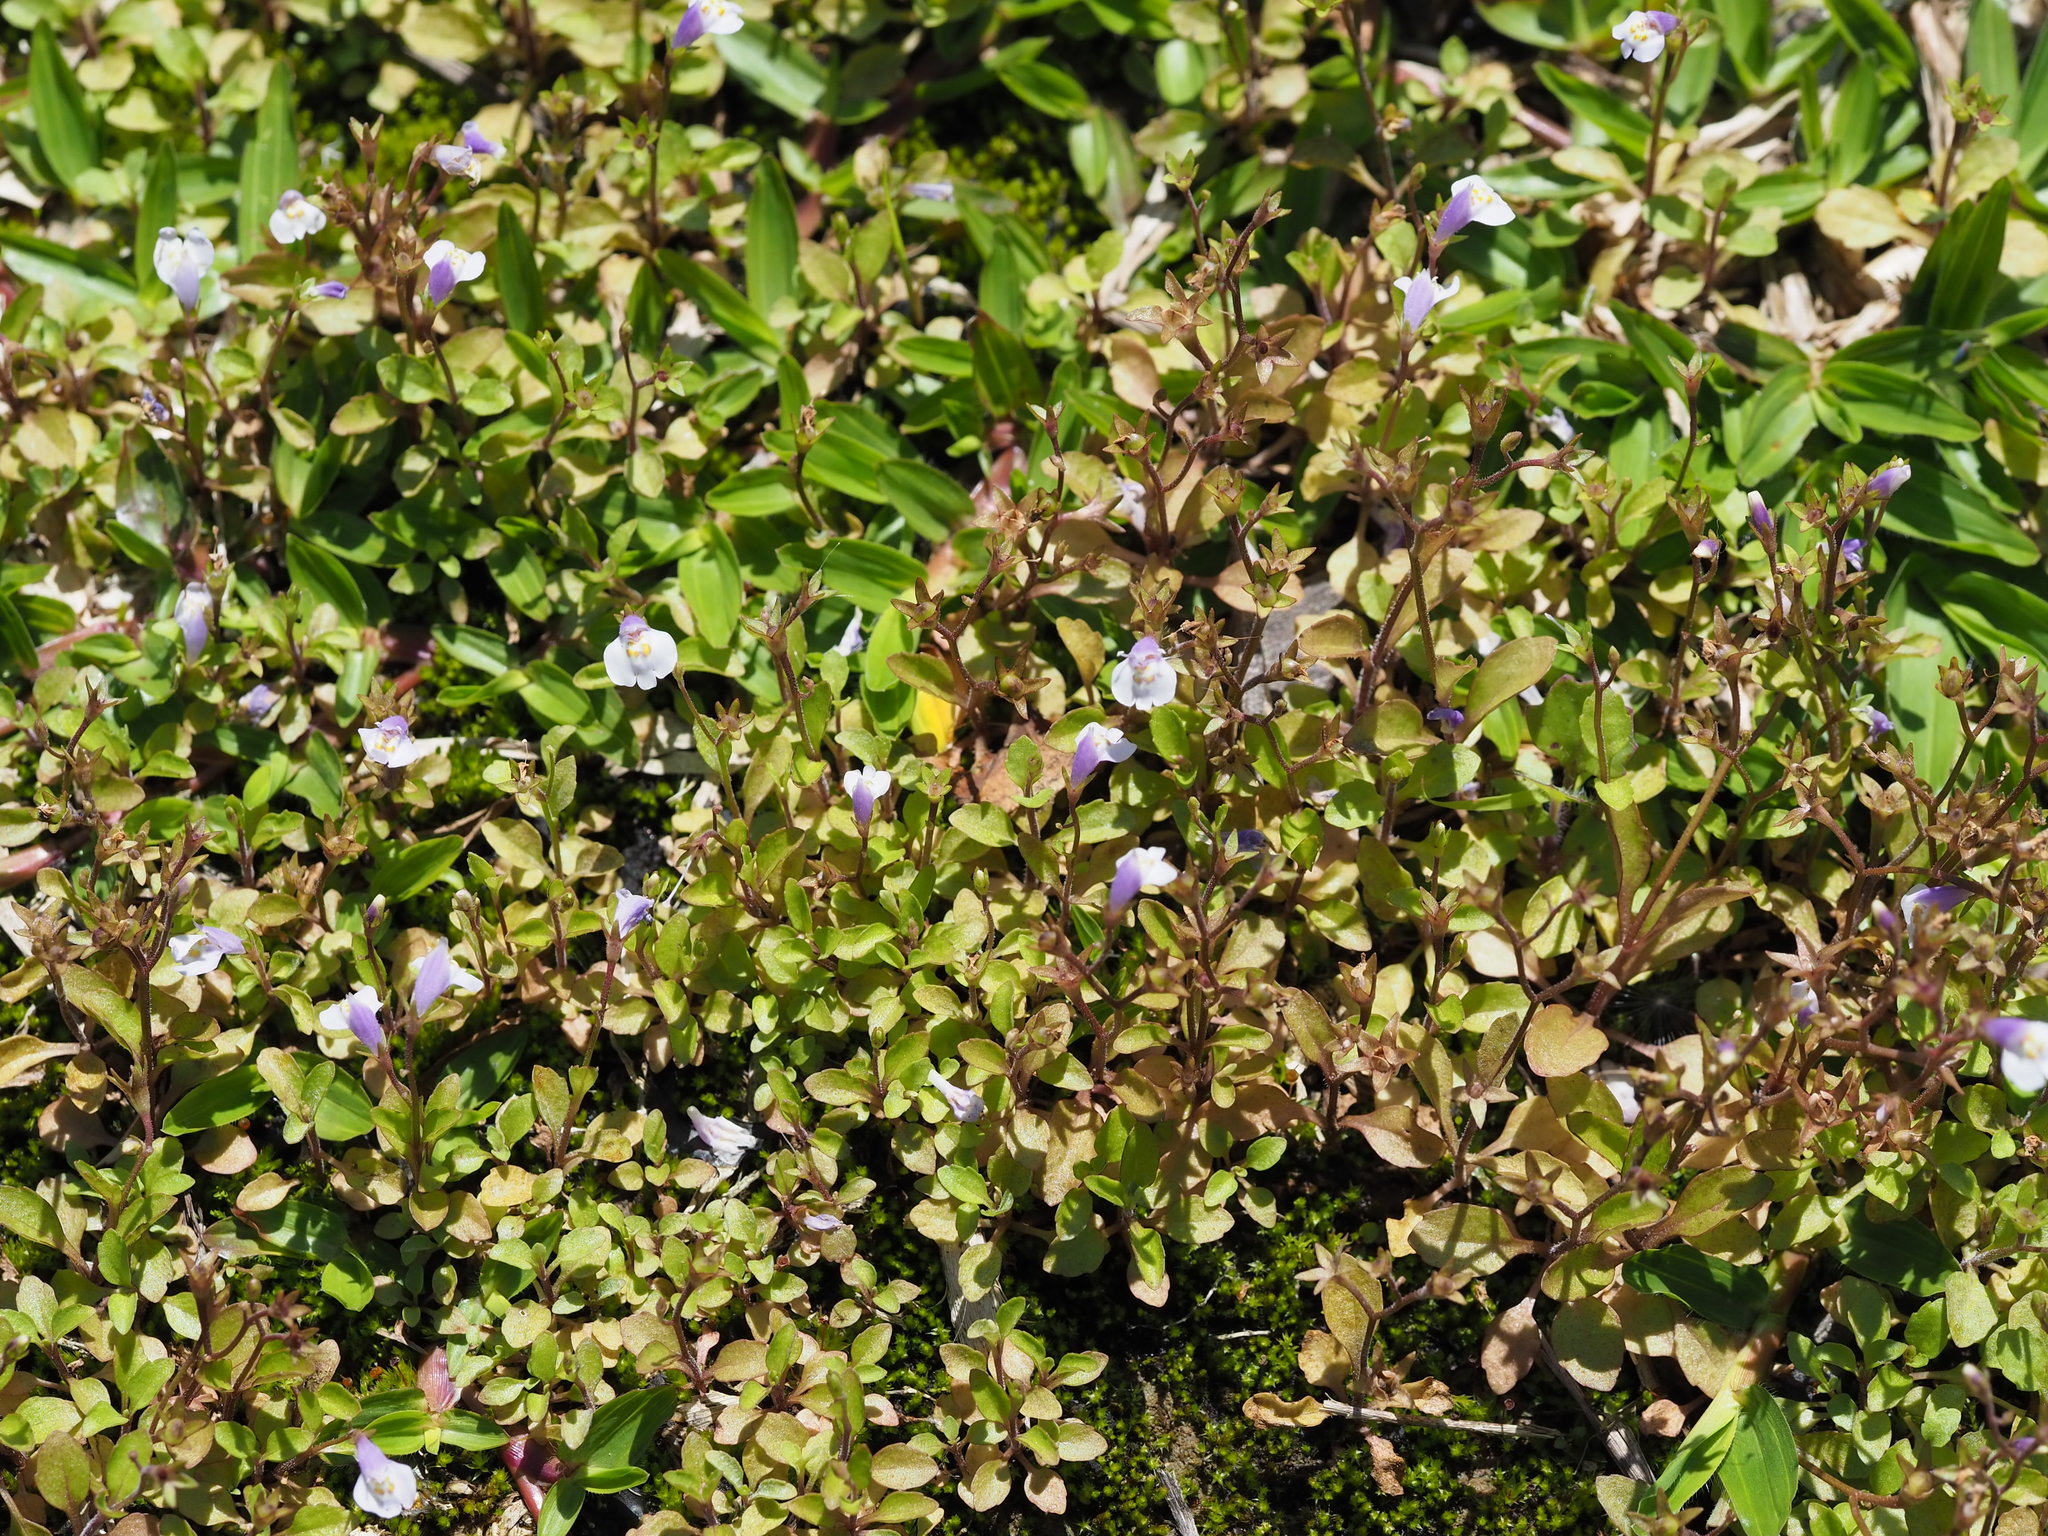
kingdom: Plantae
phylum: Tracheophyta
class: Magnoliopsida
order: Lamiales
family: Mazaceae
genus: Mazus
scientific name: Mazus pumilus
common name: Japanese mazus
